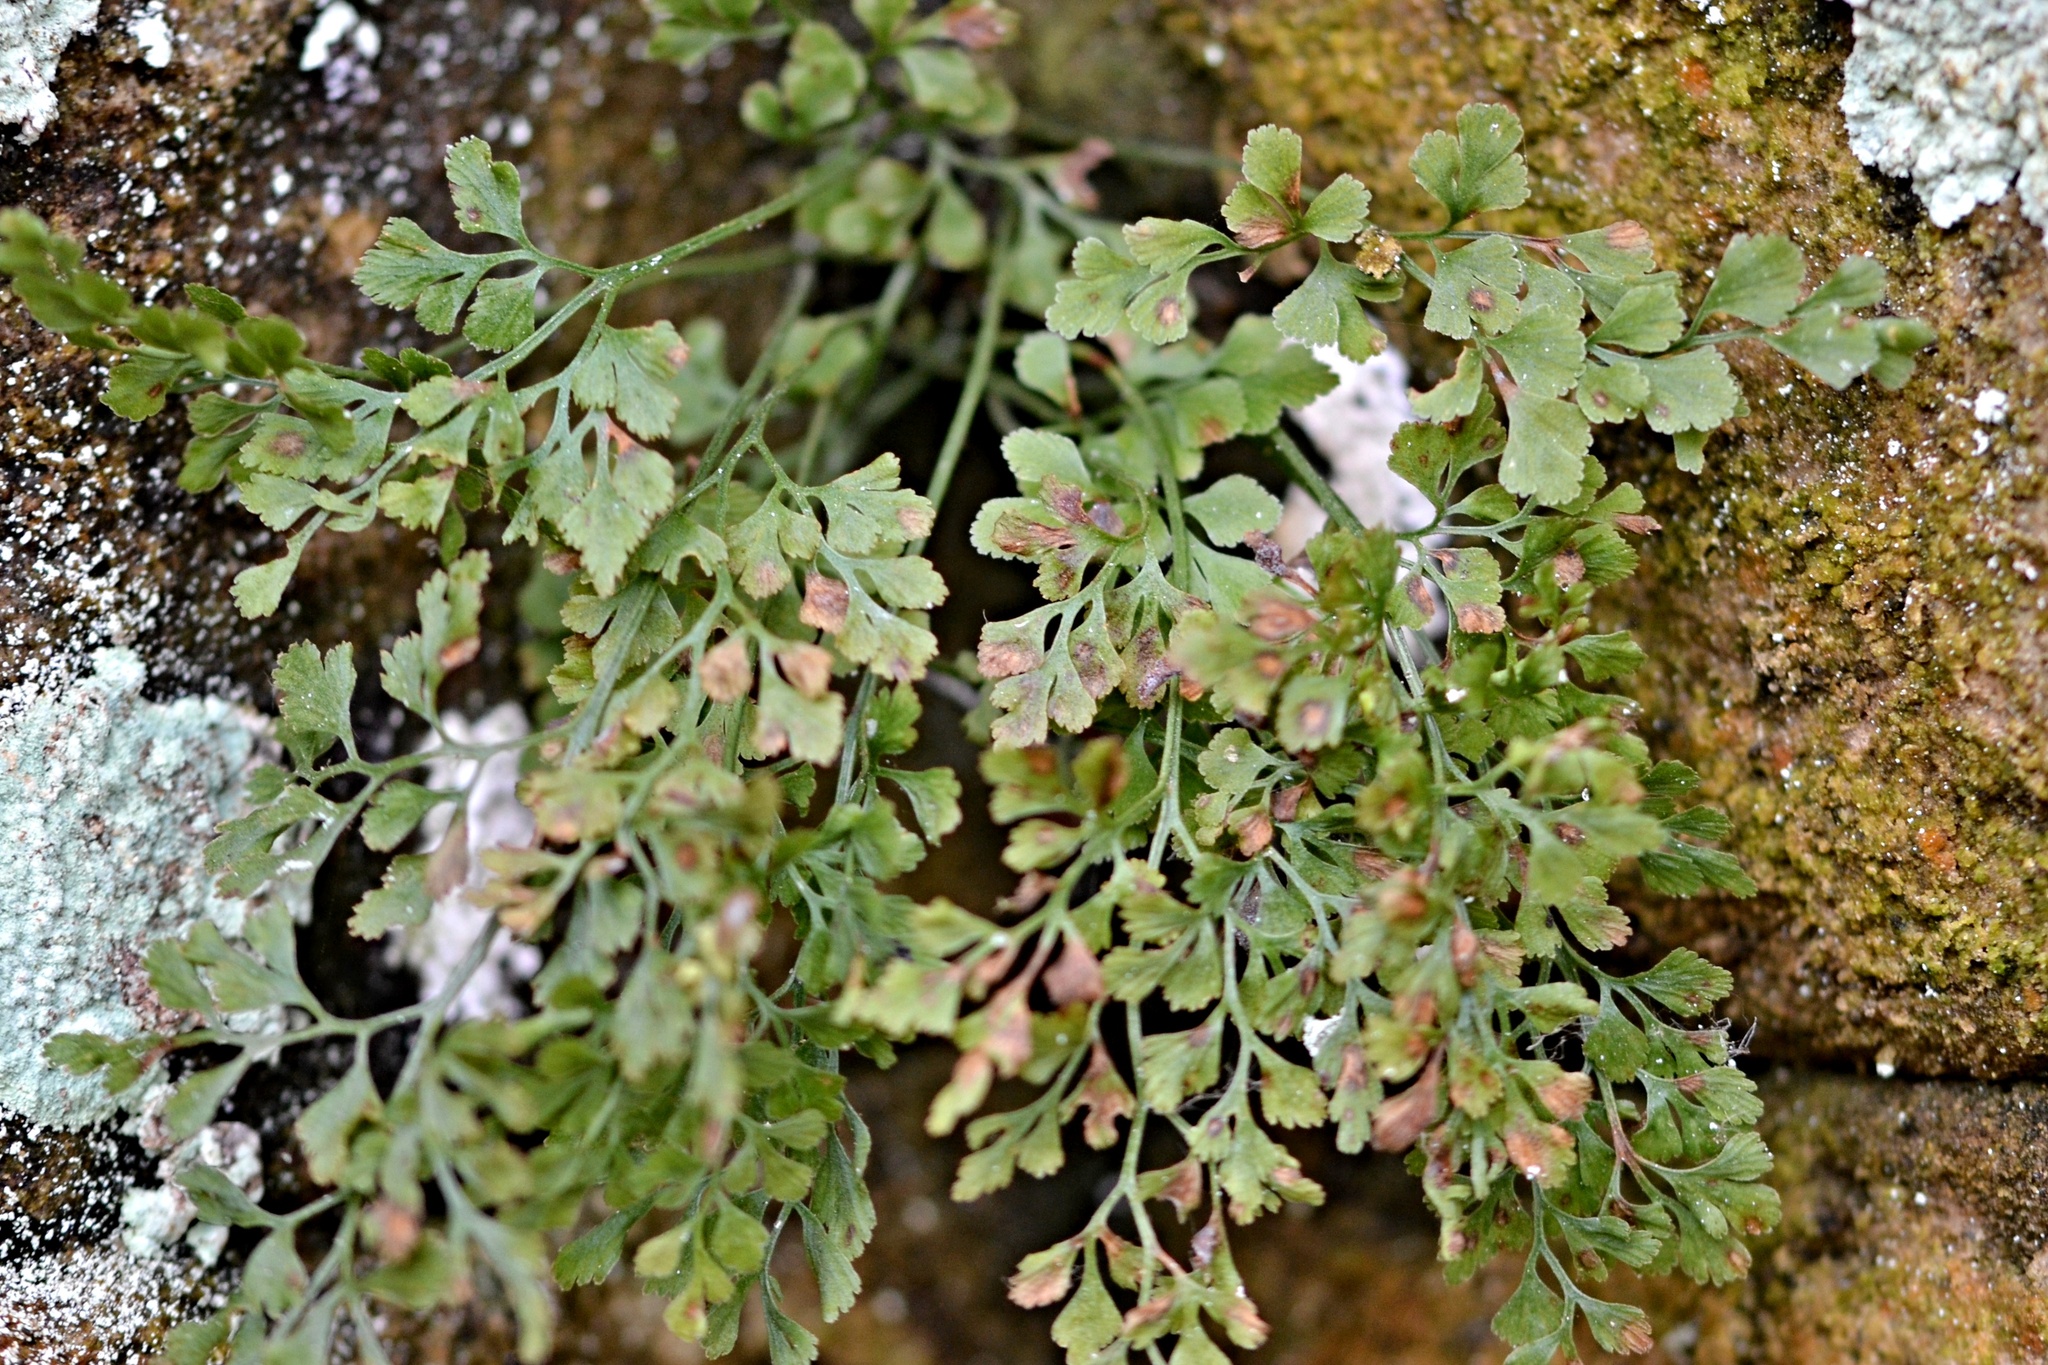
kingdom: Plantae
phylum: Tracheophyta
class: Polypodiopsida
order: Polypodiales
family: Aspleniaceae
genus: Asplenium
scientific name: Asplenium ruta-muraria
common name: Wall-rue
